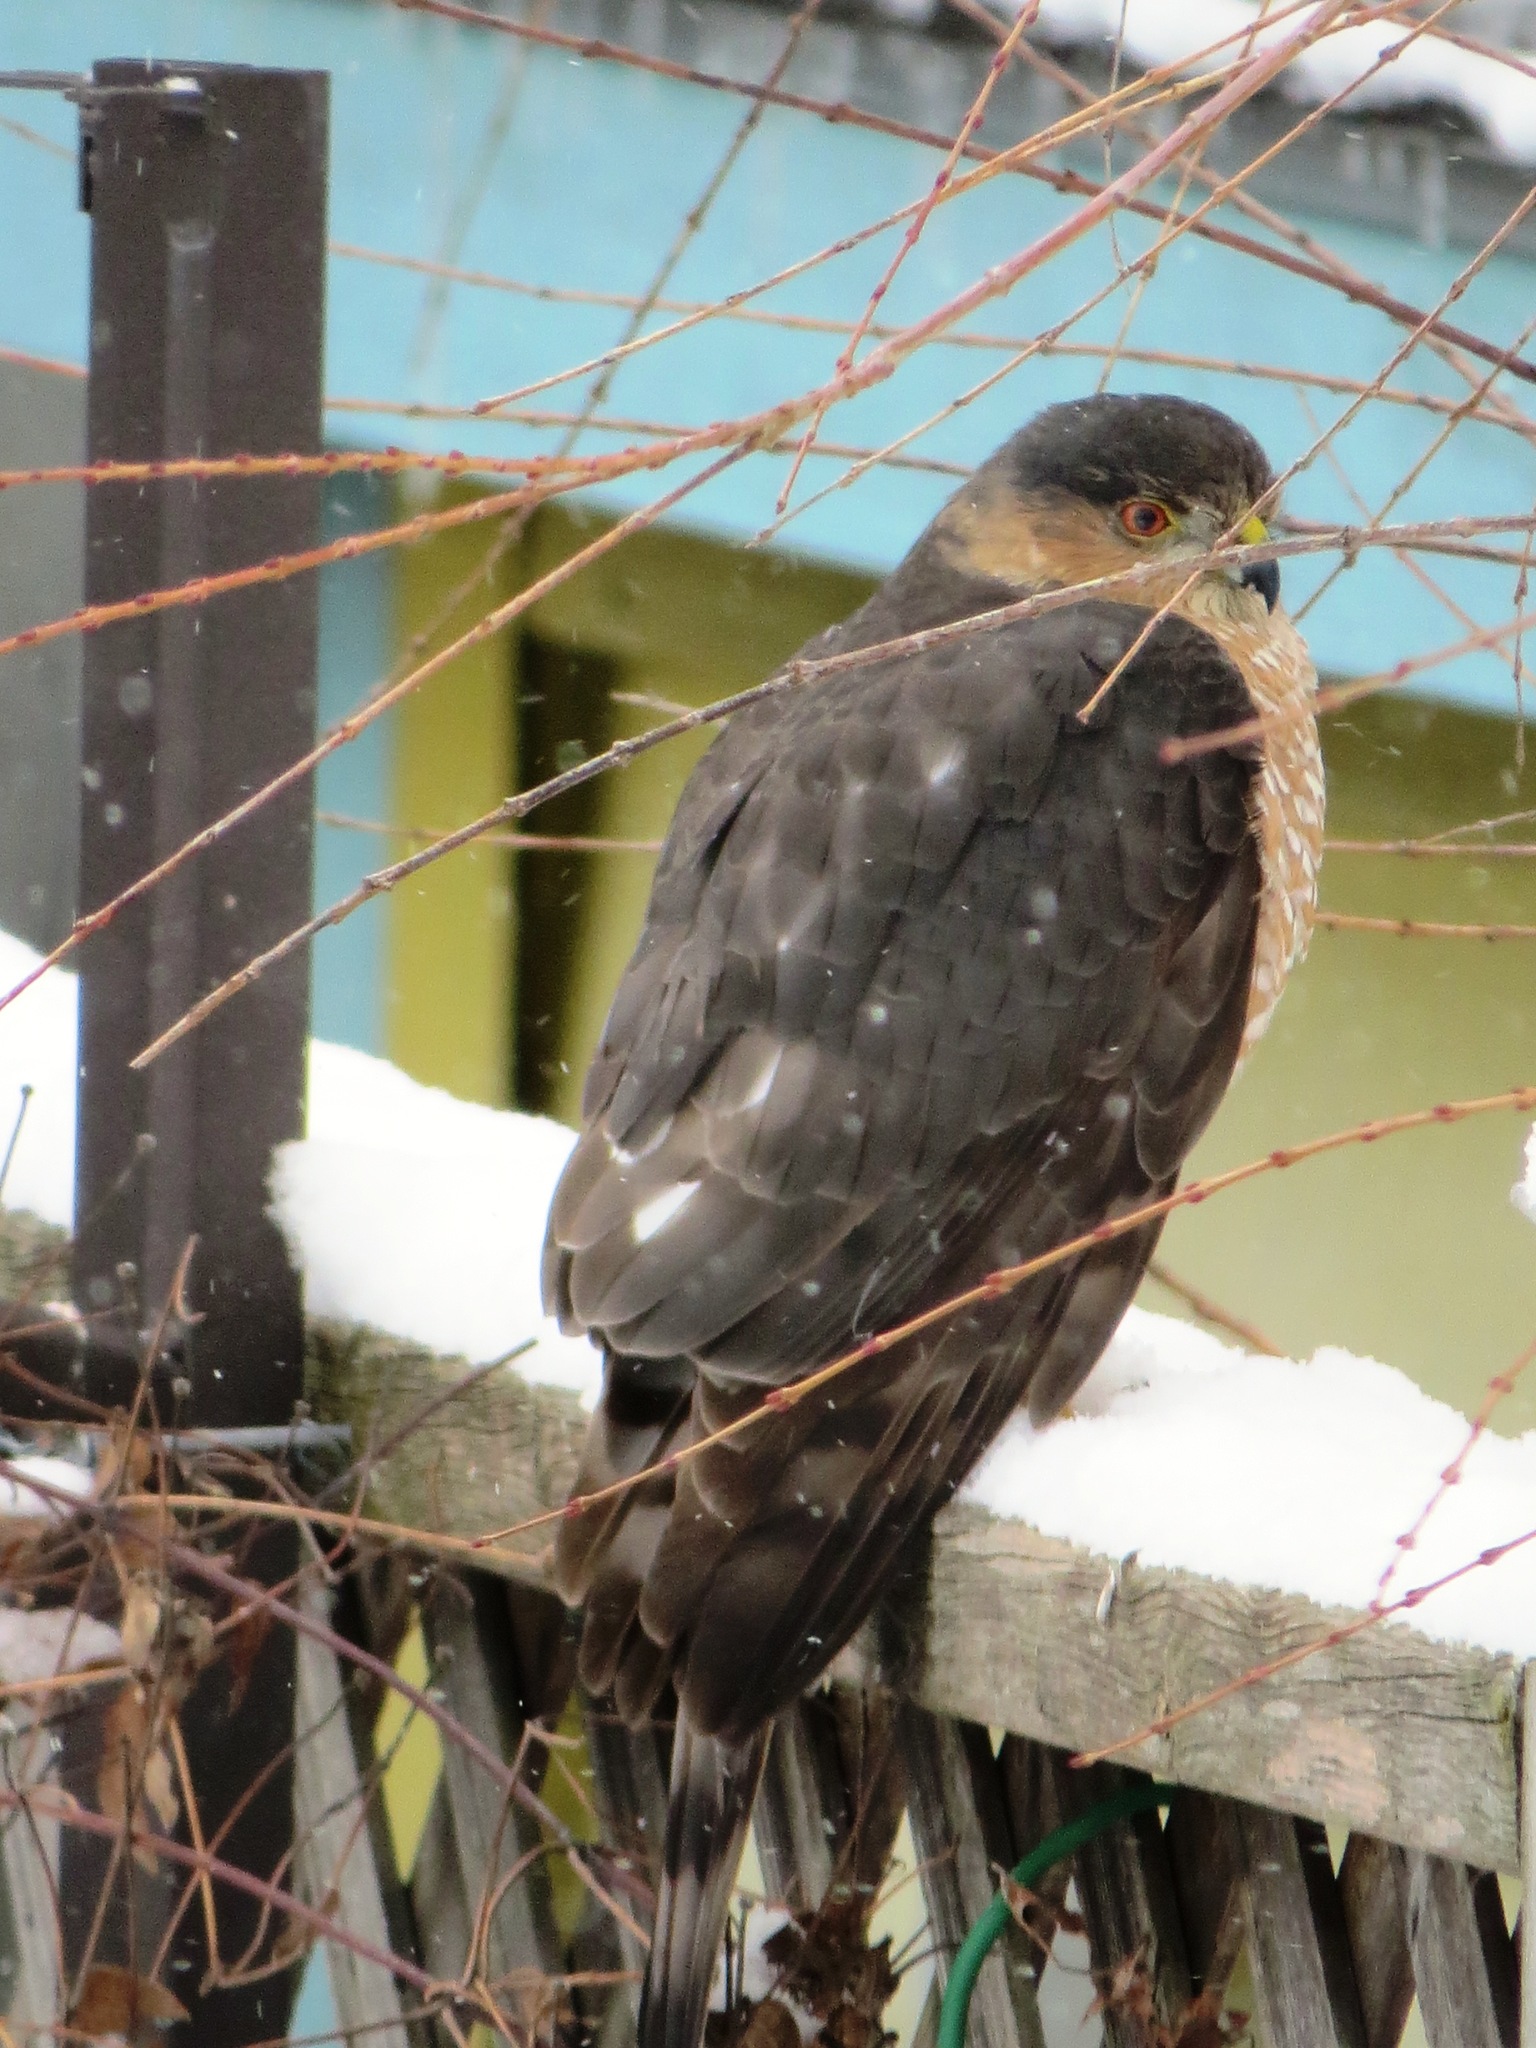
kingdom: Animalia
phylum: Chordata
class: Aves
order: Accipitriformes
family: Accipitridae
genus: Accipiter
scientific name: Accipiter striatus
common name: Sharp-shinned hawk
